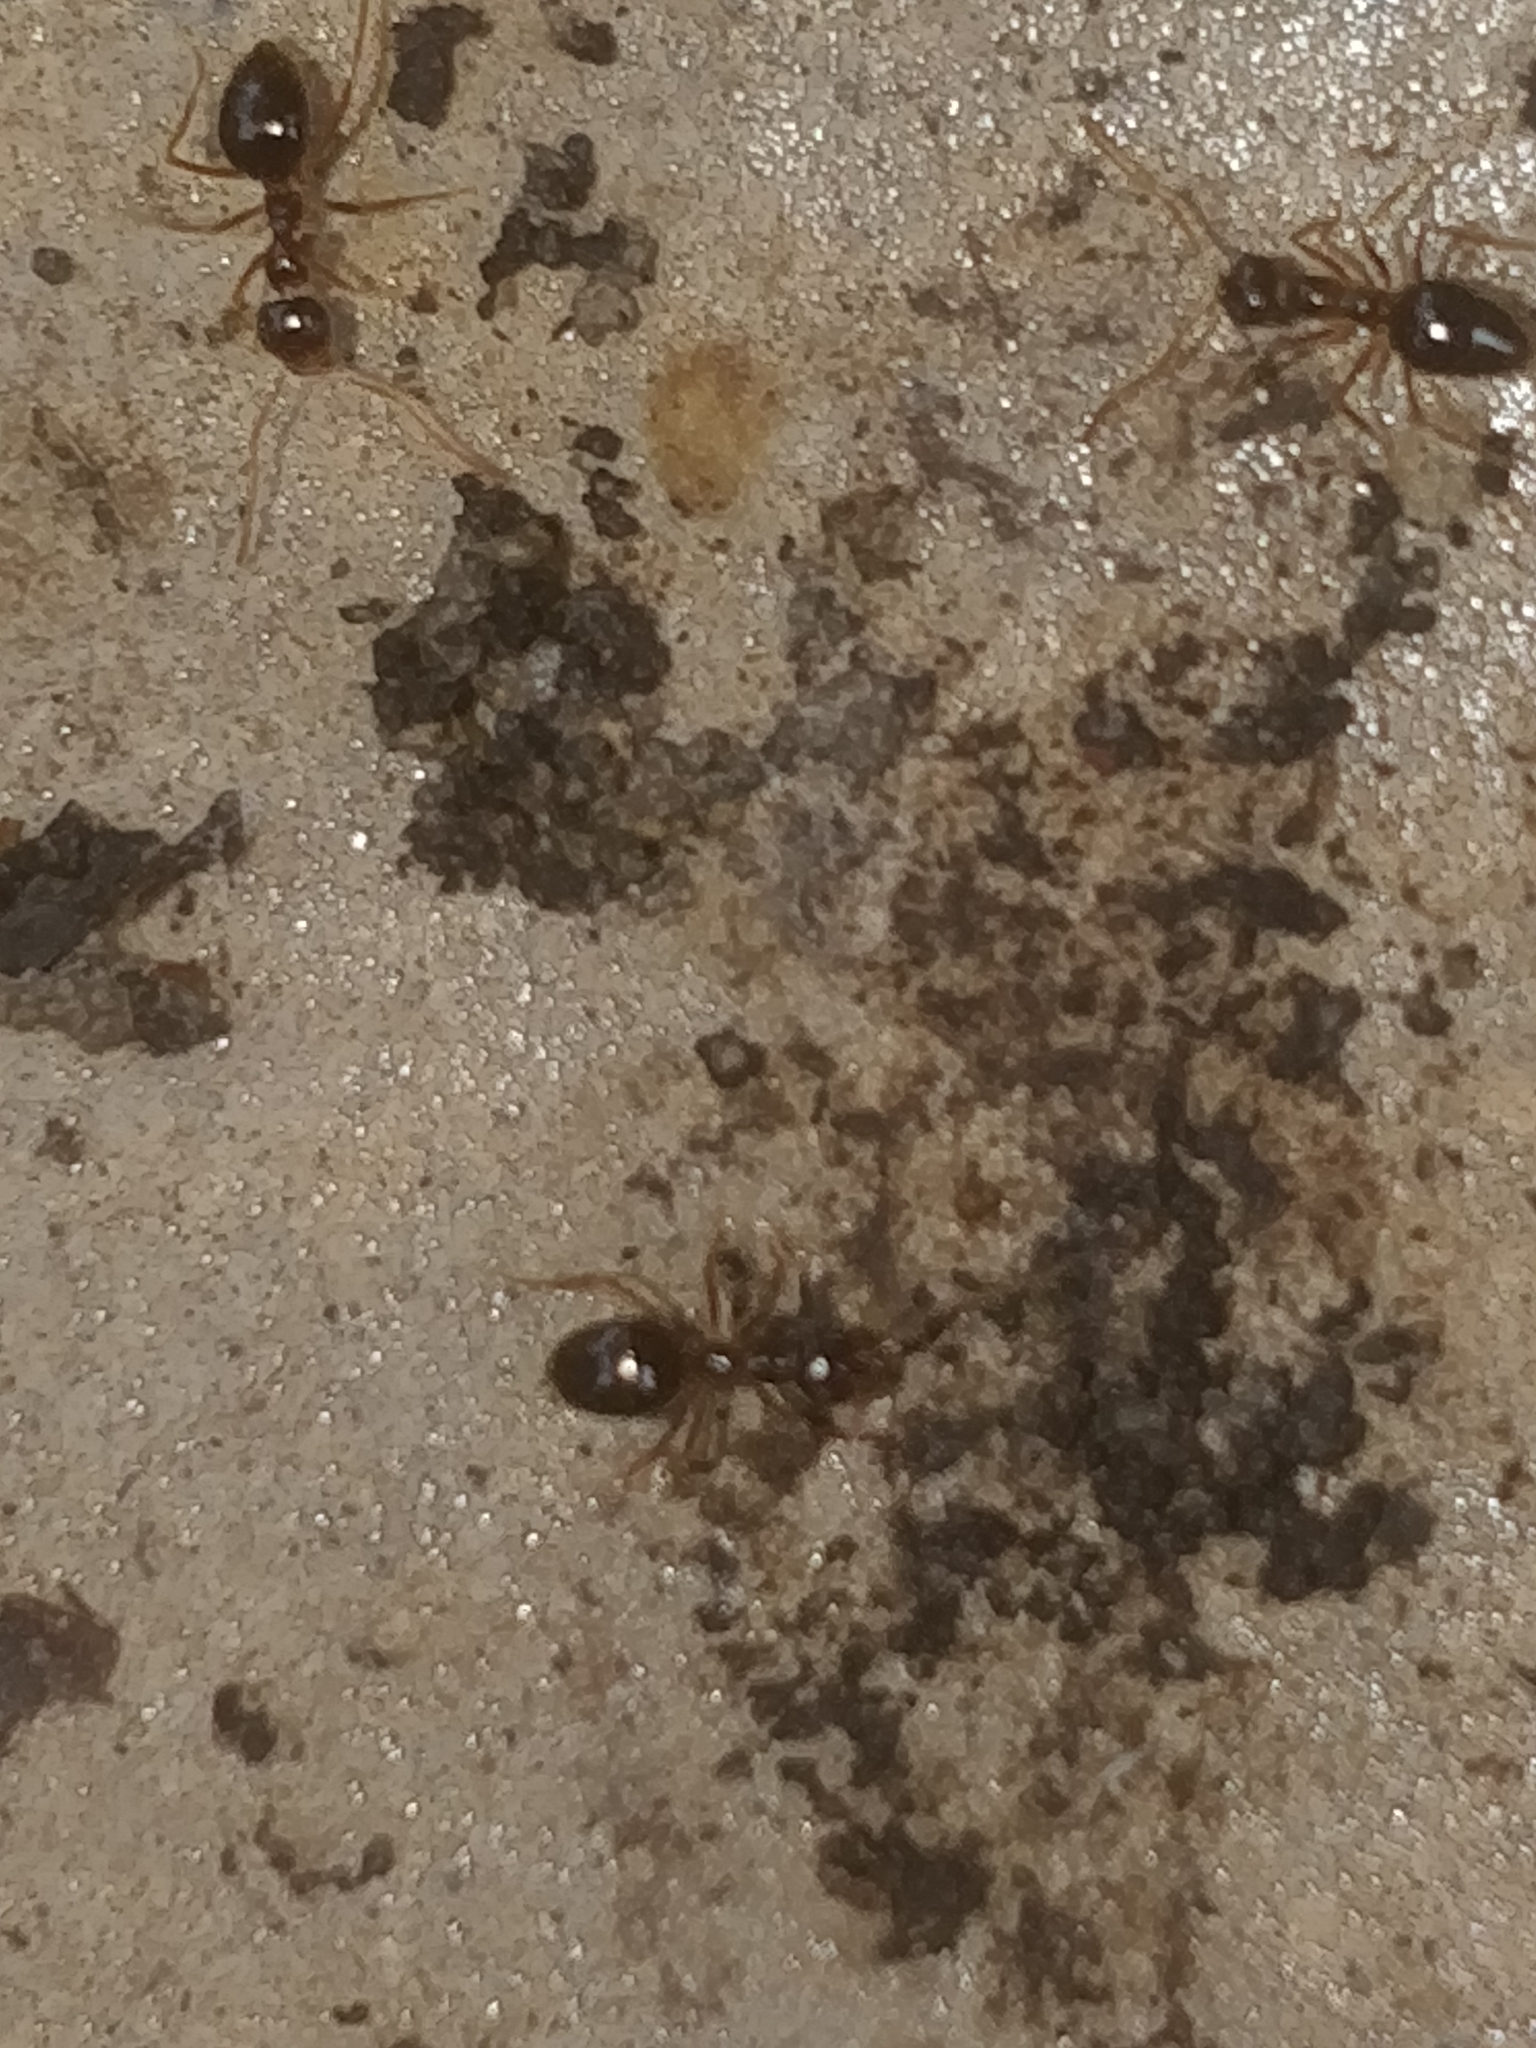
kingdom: Animalia
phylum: Arthropoda
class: Insecta
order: Hymenoptera
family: Formicidae
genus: Prenolepis
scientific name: Prenolepis imparis
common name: Small honey ant
